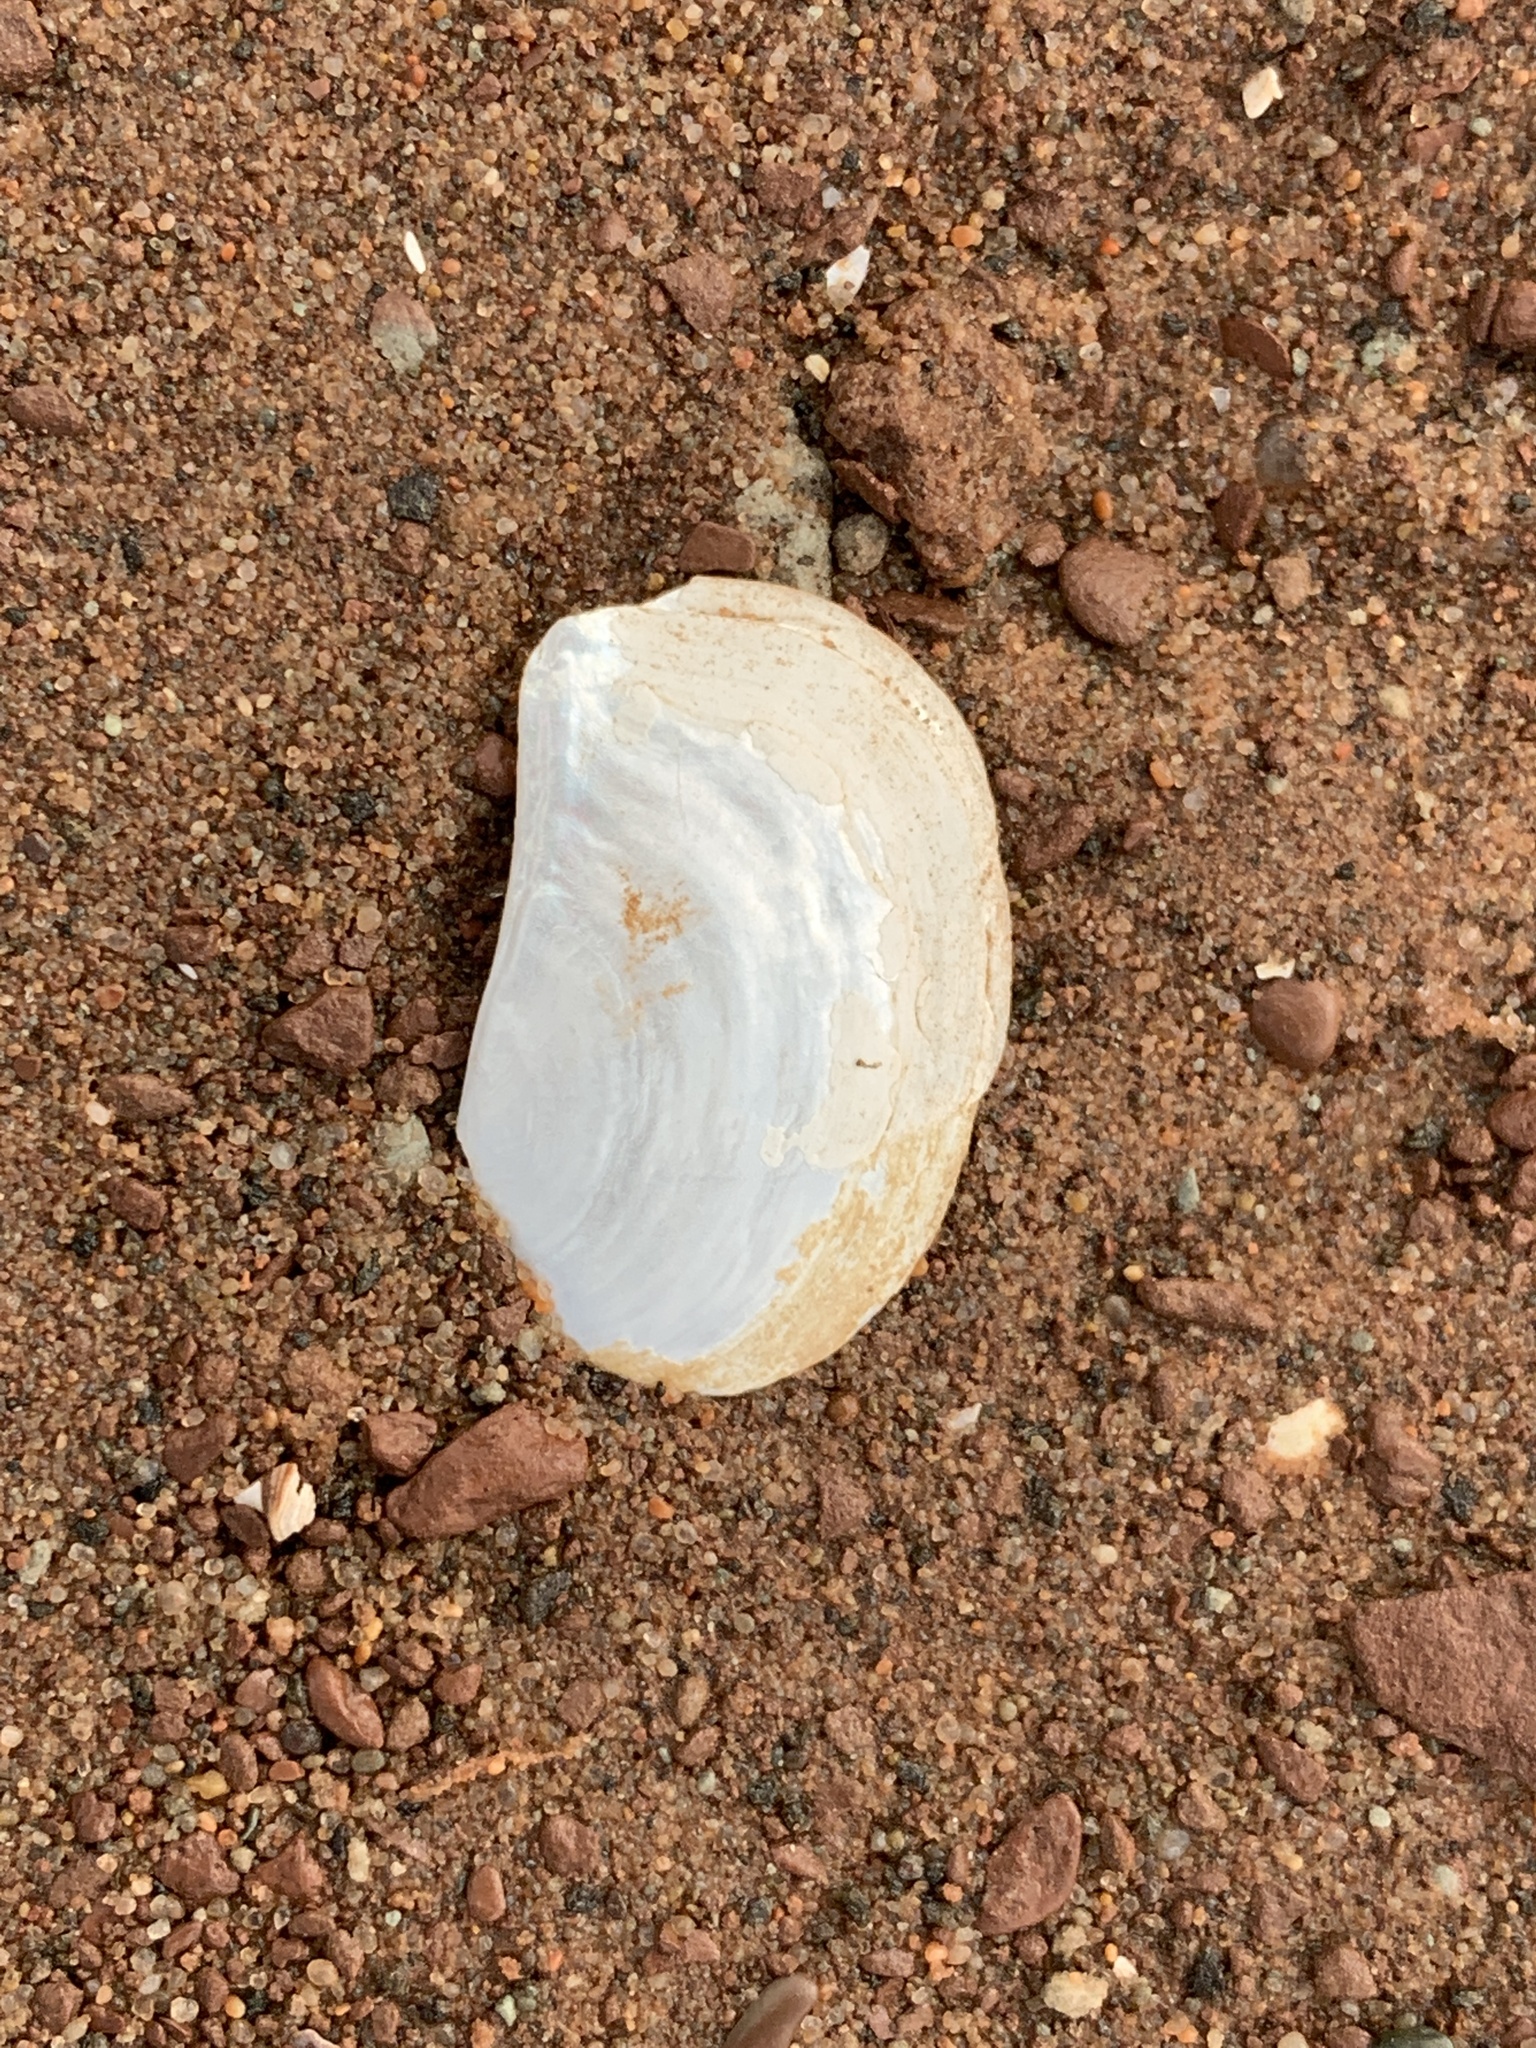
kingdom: Animalia
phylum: Mollusca
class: Bivalvia
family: Pandoridae
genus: Pandora
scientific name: Pandora gouldiana
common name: Rounded pandora
